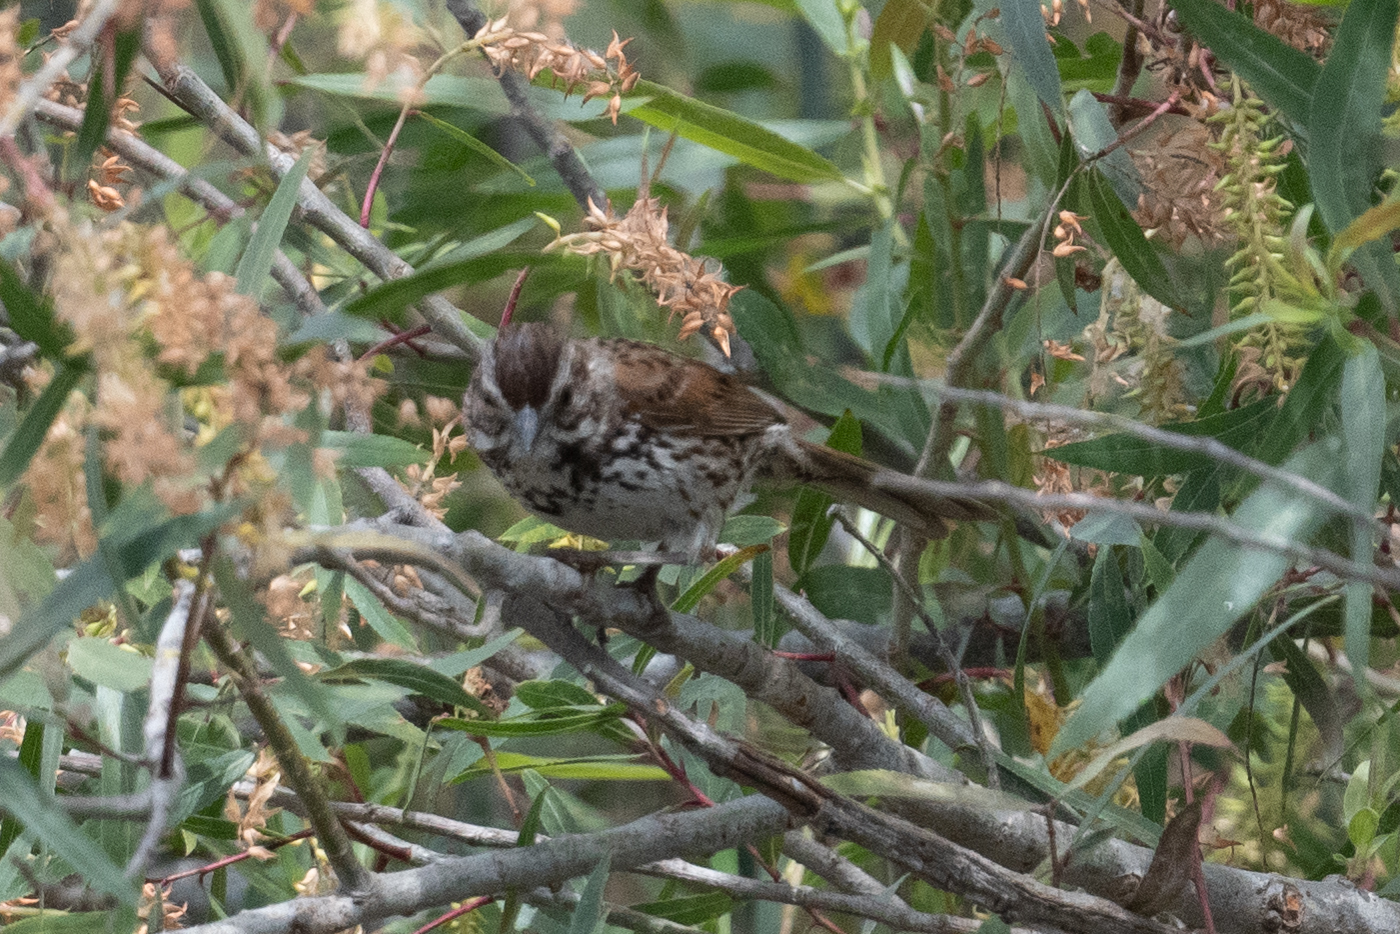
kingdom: Animalia
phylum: Chordata
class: Aves
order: Passeriformes
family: Passerellidae
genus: Melospiza
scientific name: Melospiza melodia
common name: Song sparrow
